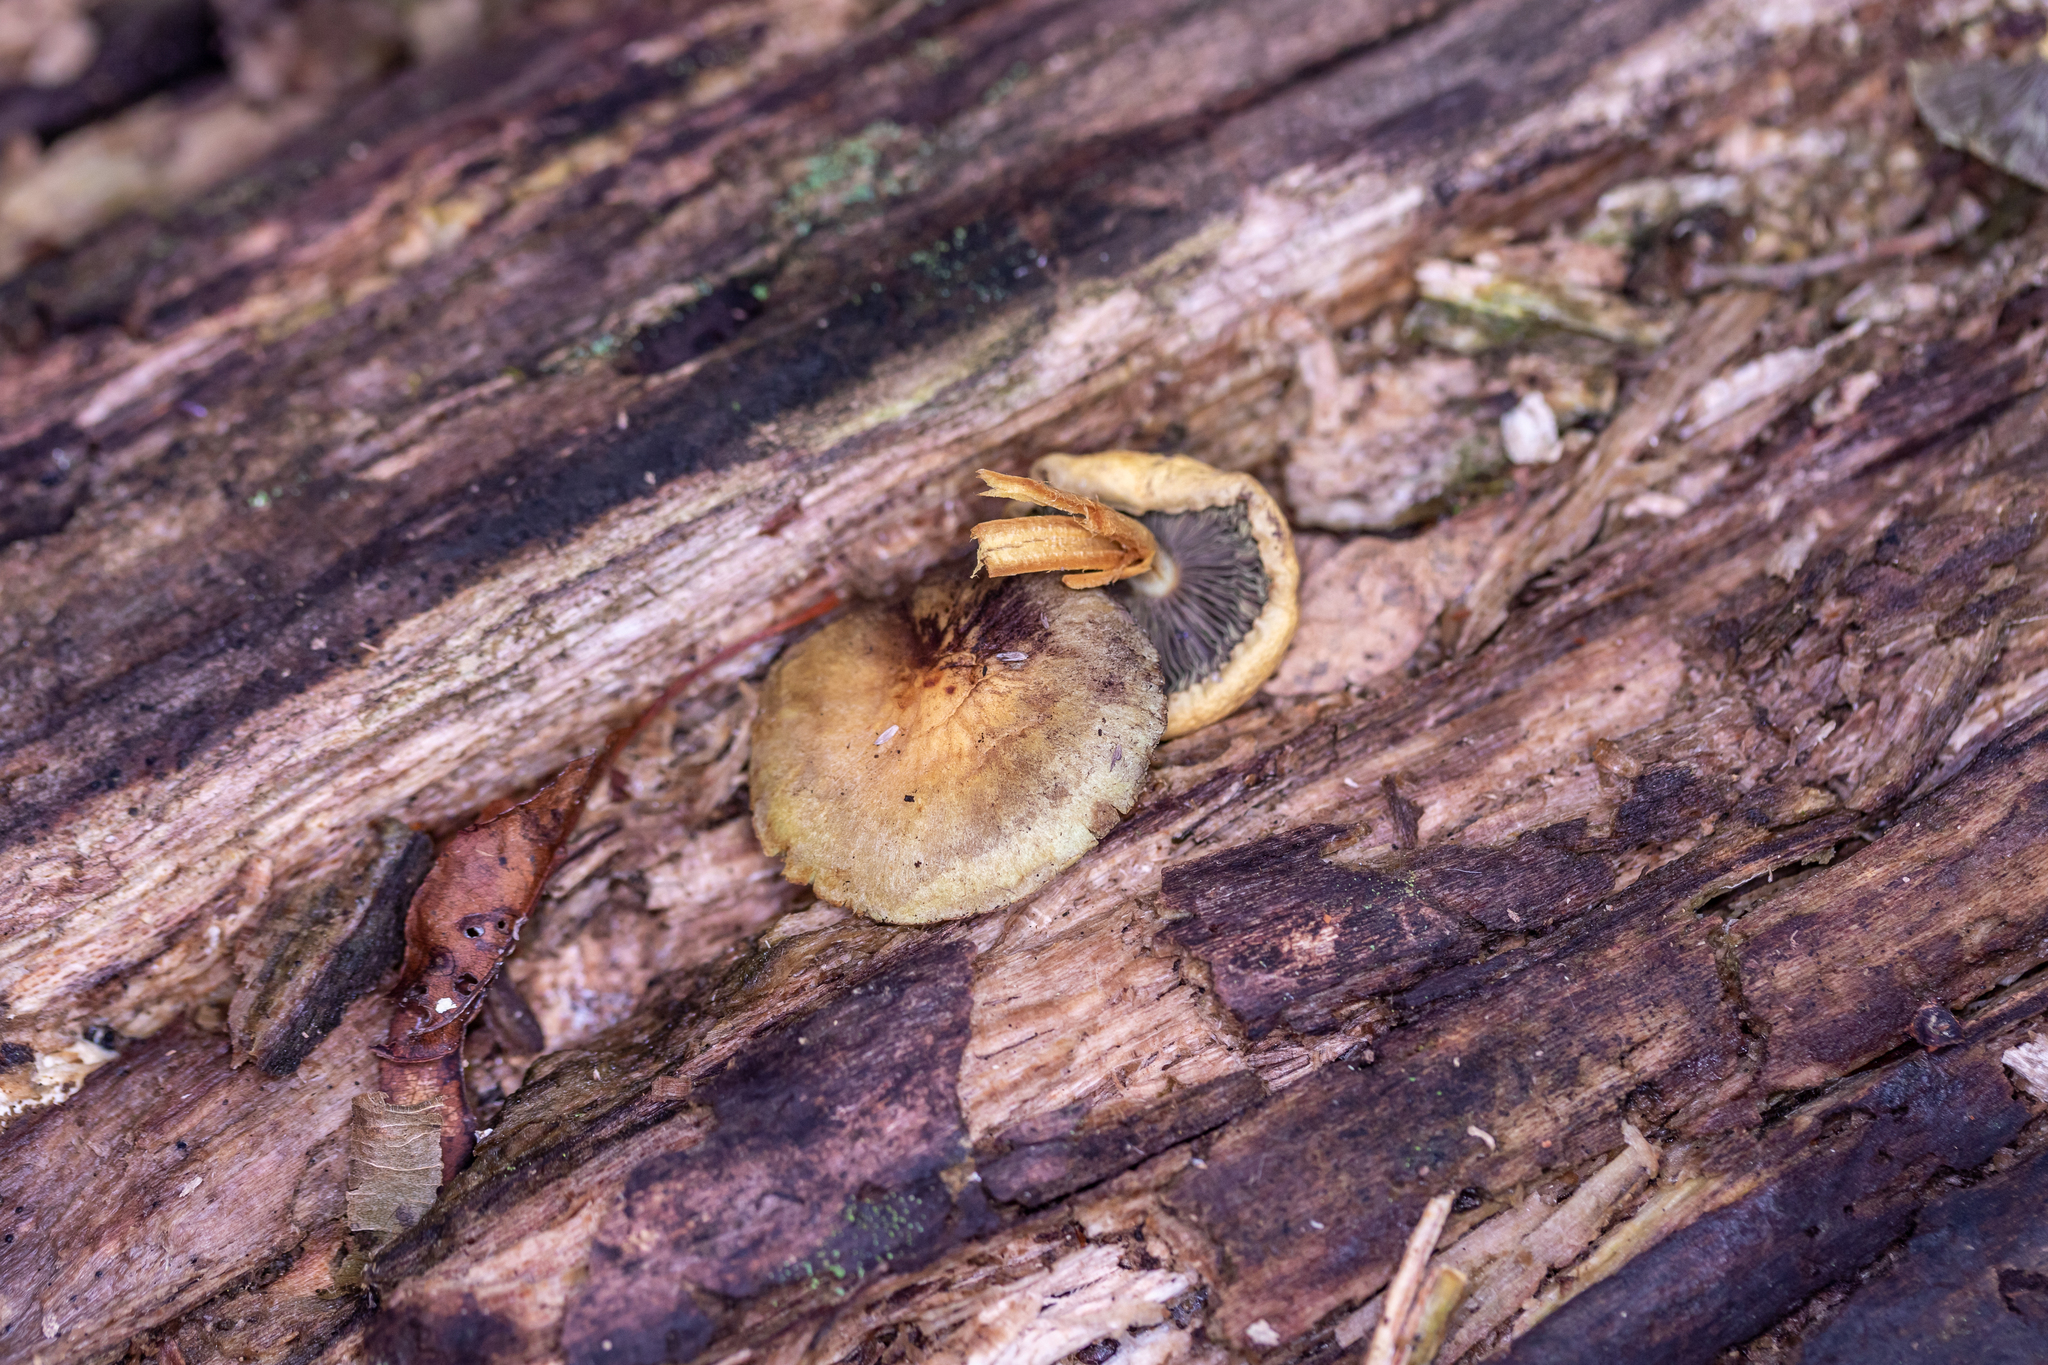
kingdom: Fungi
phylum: Basidiomycota
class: Agaricomycetes
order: Agaricales
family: Strophariaceae
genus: Hypholoma
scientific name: Hypholoma fasciculare
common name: Sulphur tuft
